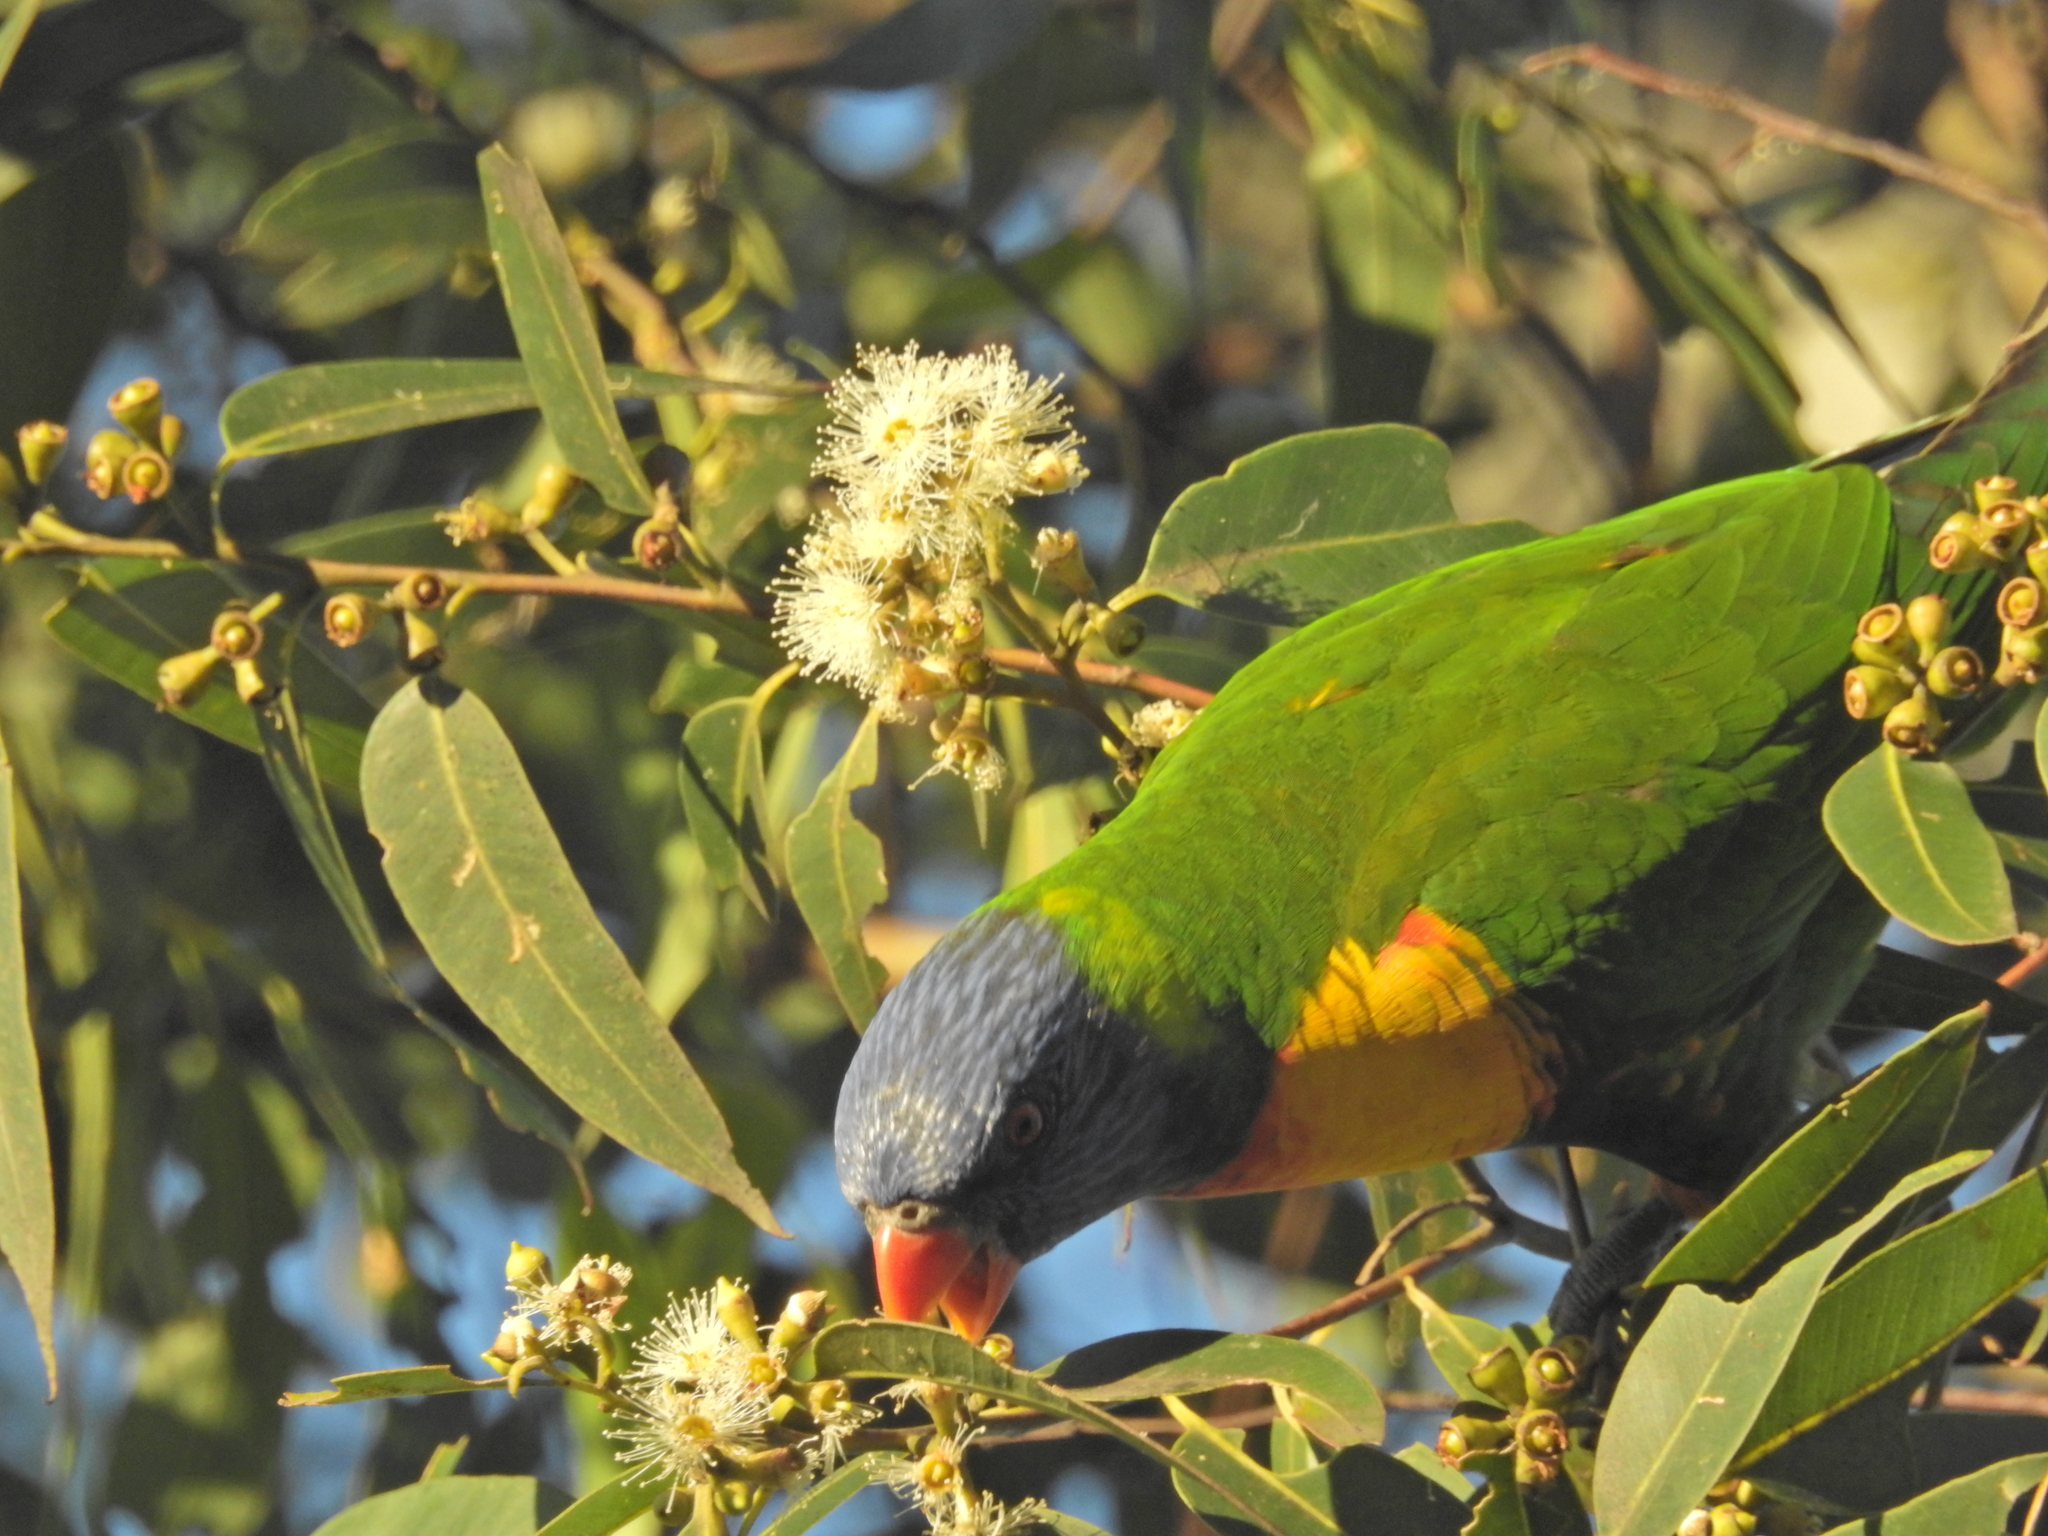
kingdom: Animalia
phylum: Chordata
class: Aves
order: Psittaciformes
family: Psittacidae
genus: Trichoglossus
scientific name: Trichoglossus haematodus
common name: Coconut lorikeet
